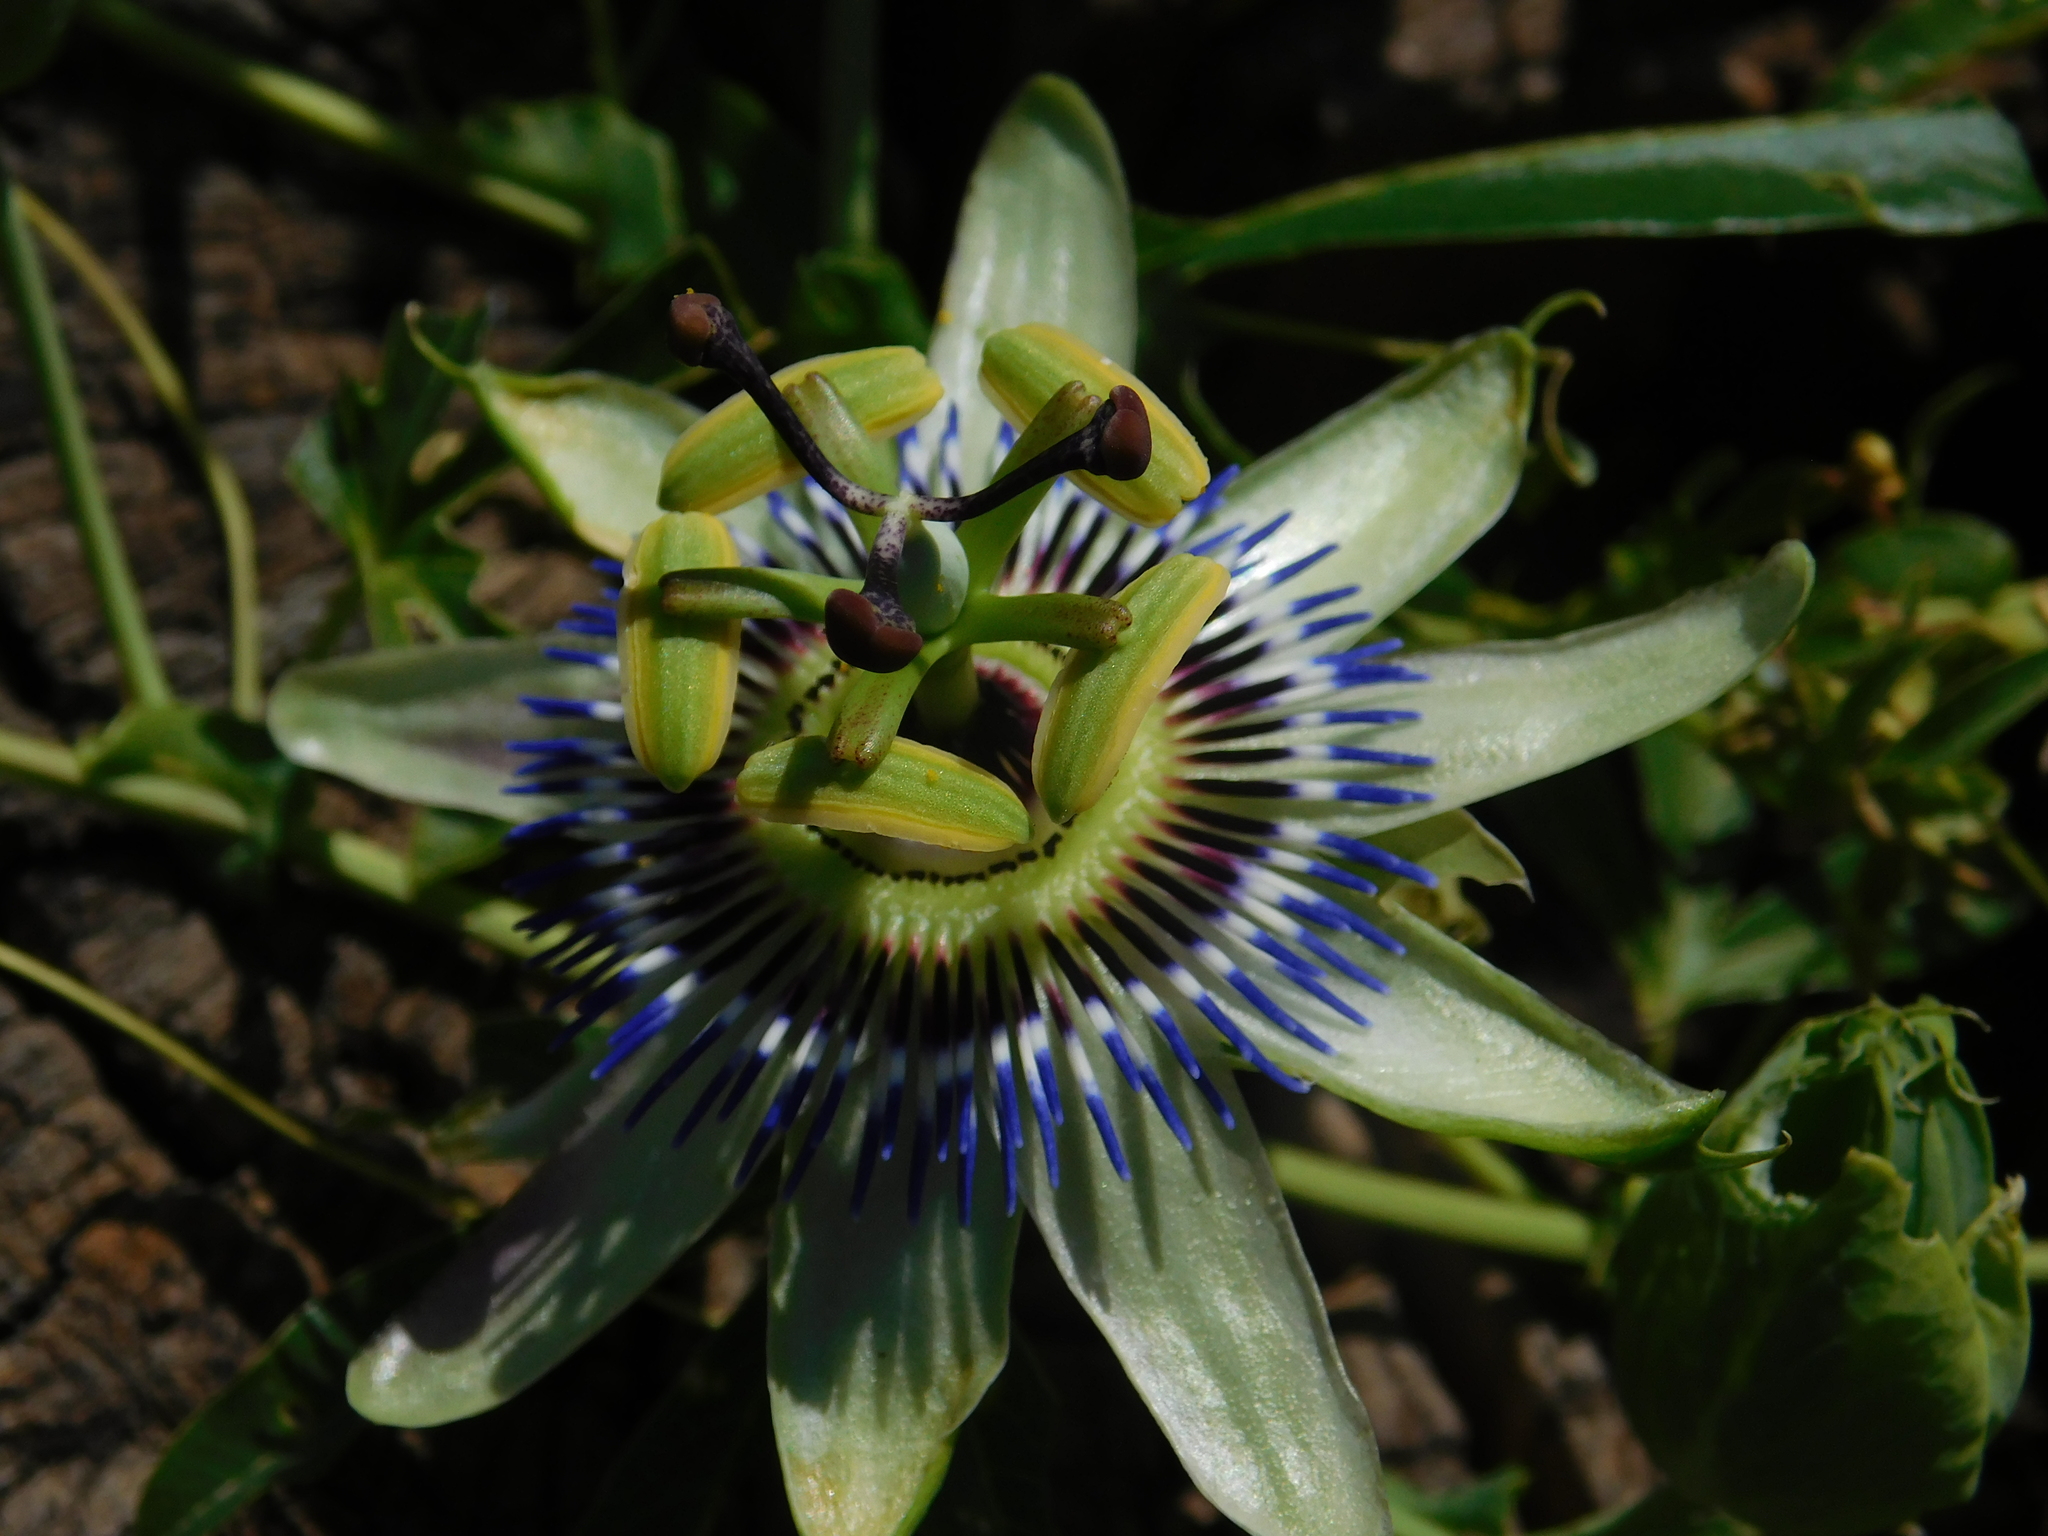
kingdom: Plantae
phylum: Tracheophyta
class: Magnoliopsida
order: Malpighiales
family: Passifloraceae
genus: Passiflora
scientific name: Passiflora caerulea
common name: Blue passionflower
